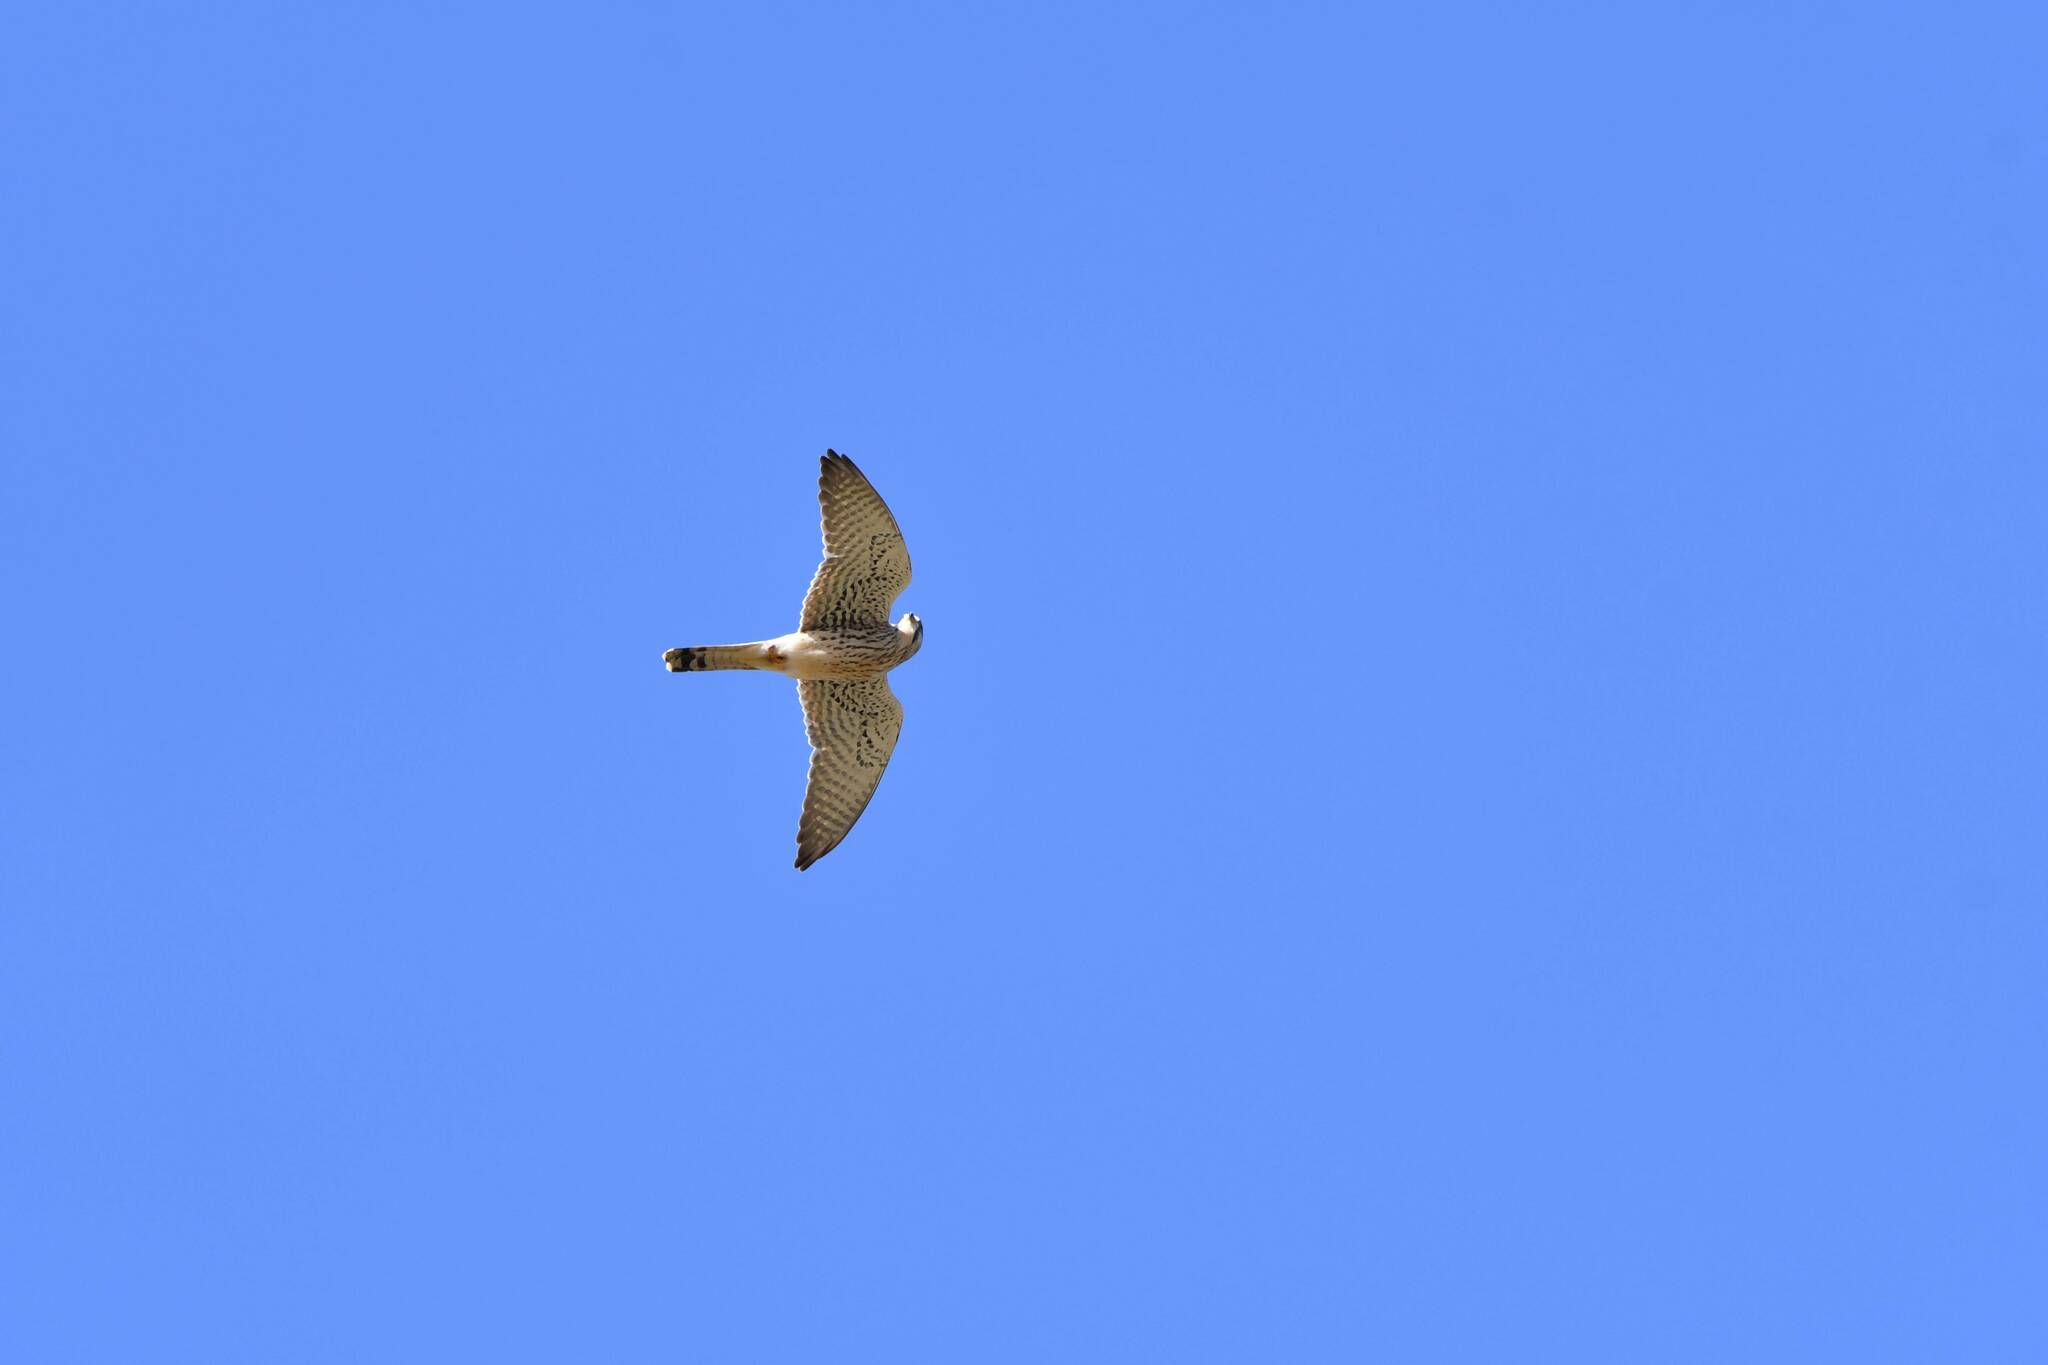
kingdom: Animalia
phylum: Chordata
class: Aves
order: Falconiformes
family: Falconidae
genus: Falco
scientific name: Falco tinnunculus
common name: Common kestrel
